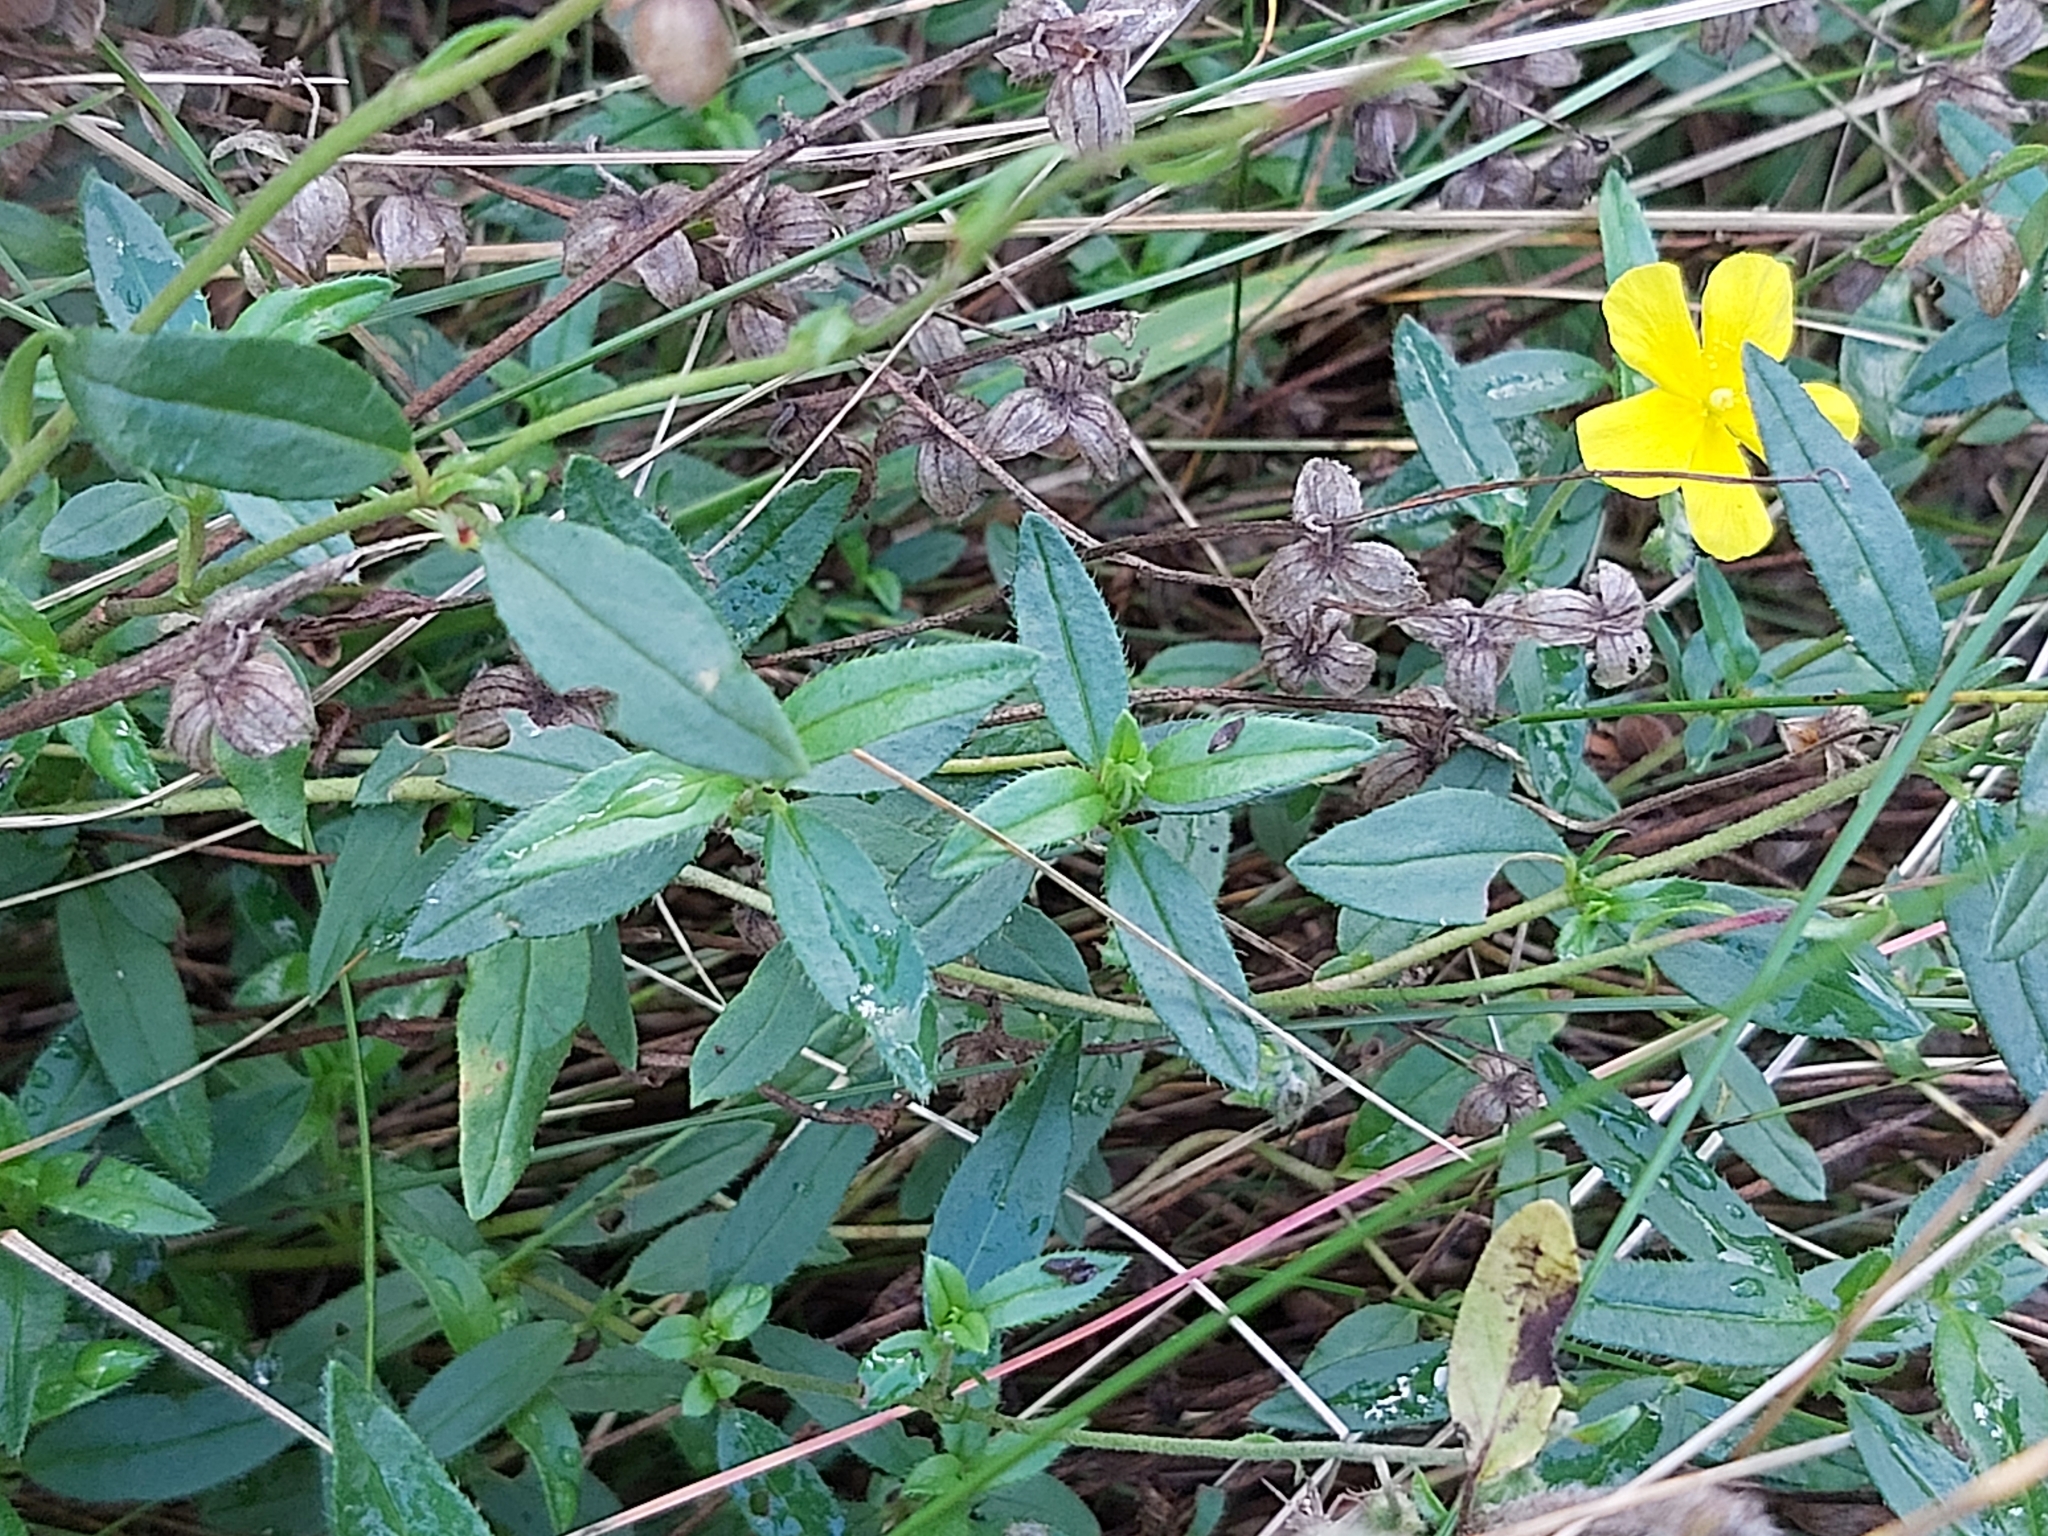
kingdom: Plantae
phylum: Tracheophyta
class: Magnoliopsida
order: Malvales
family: Cistaceae
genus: Helianthemum
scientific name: Helianthemum nummularium
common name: Common rock-rose
